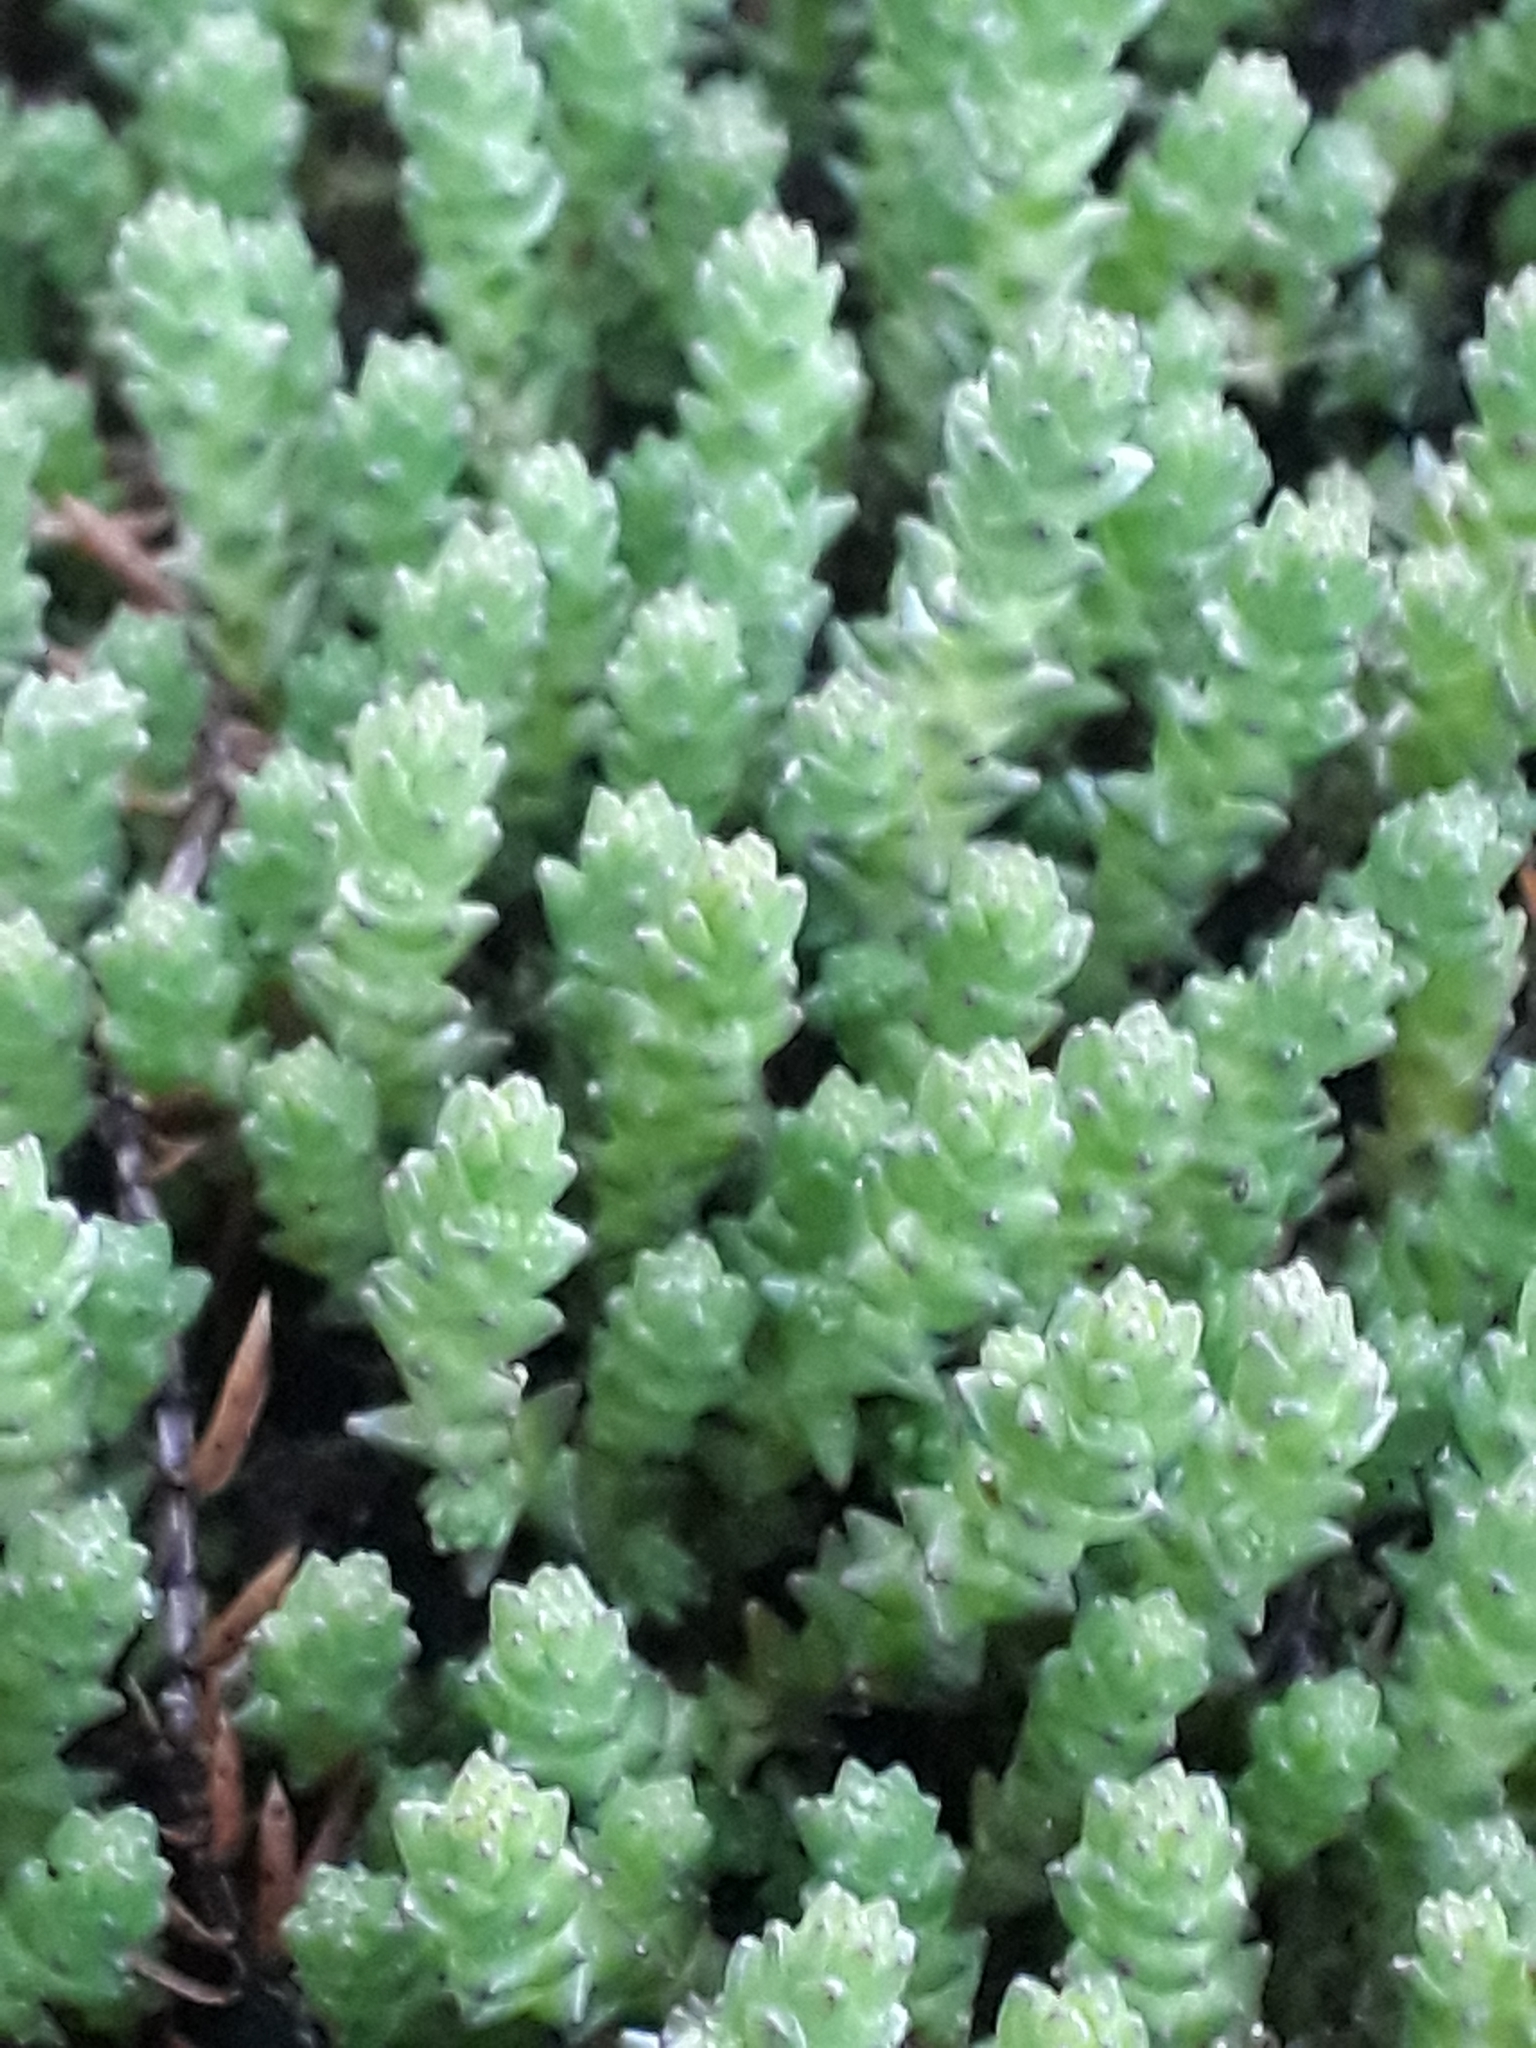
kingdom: Plantae
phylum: Tracheophyta
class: Magnoliopsida
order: Saxifragales
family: Crassulaceae
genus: Sedum
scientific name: Sedum acre
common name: Biting stonecrop
